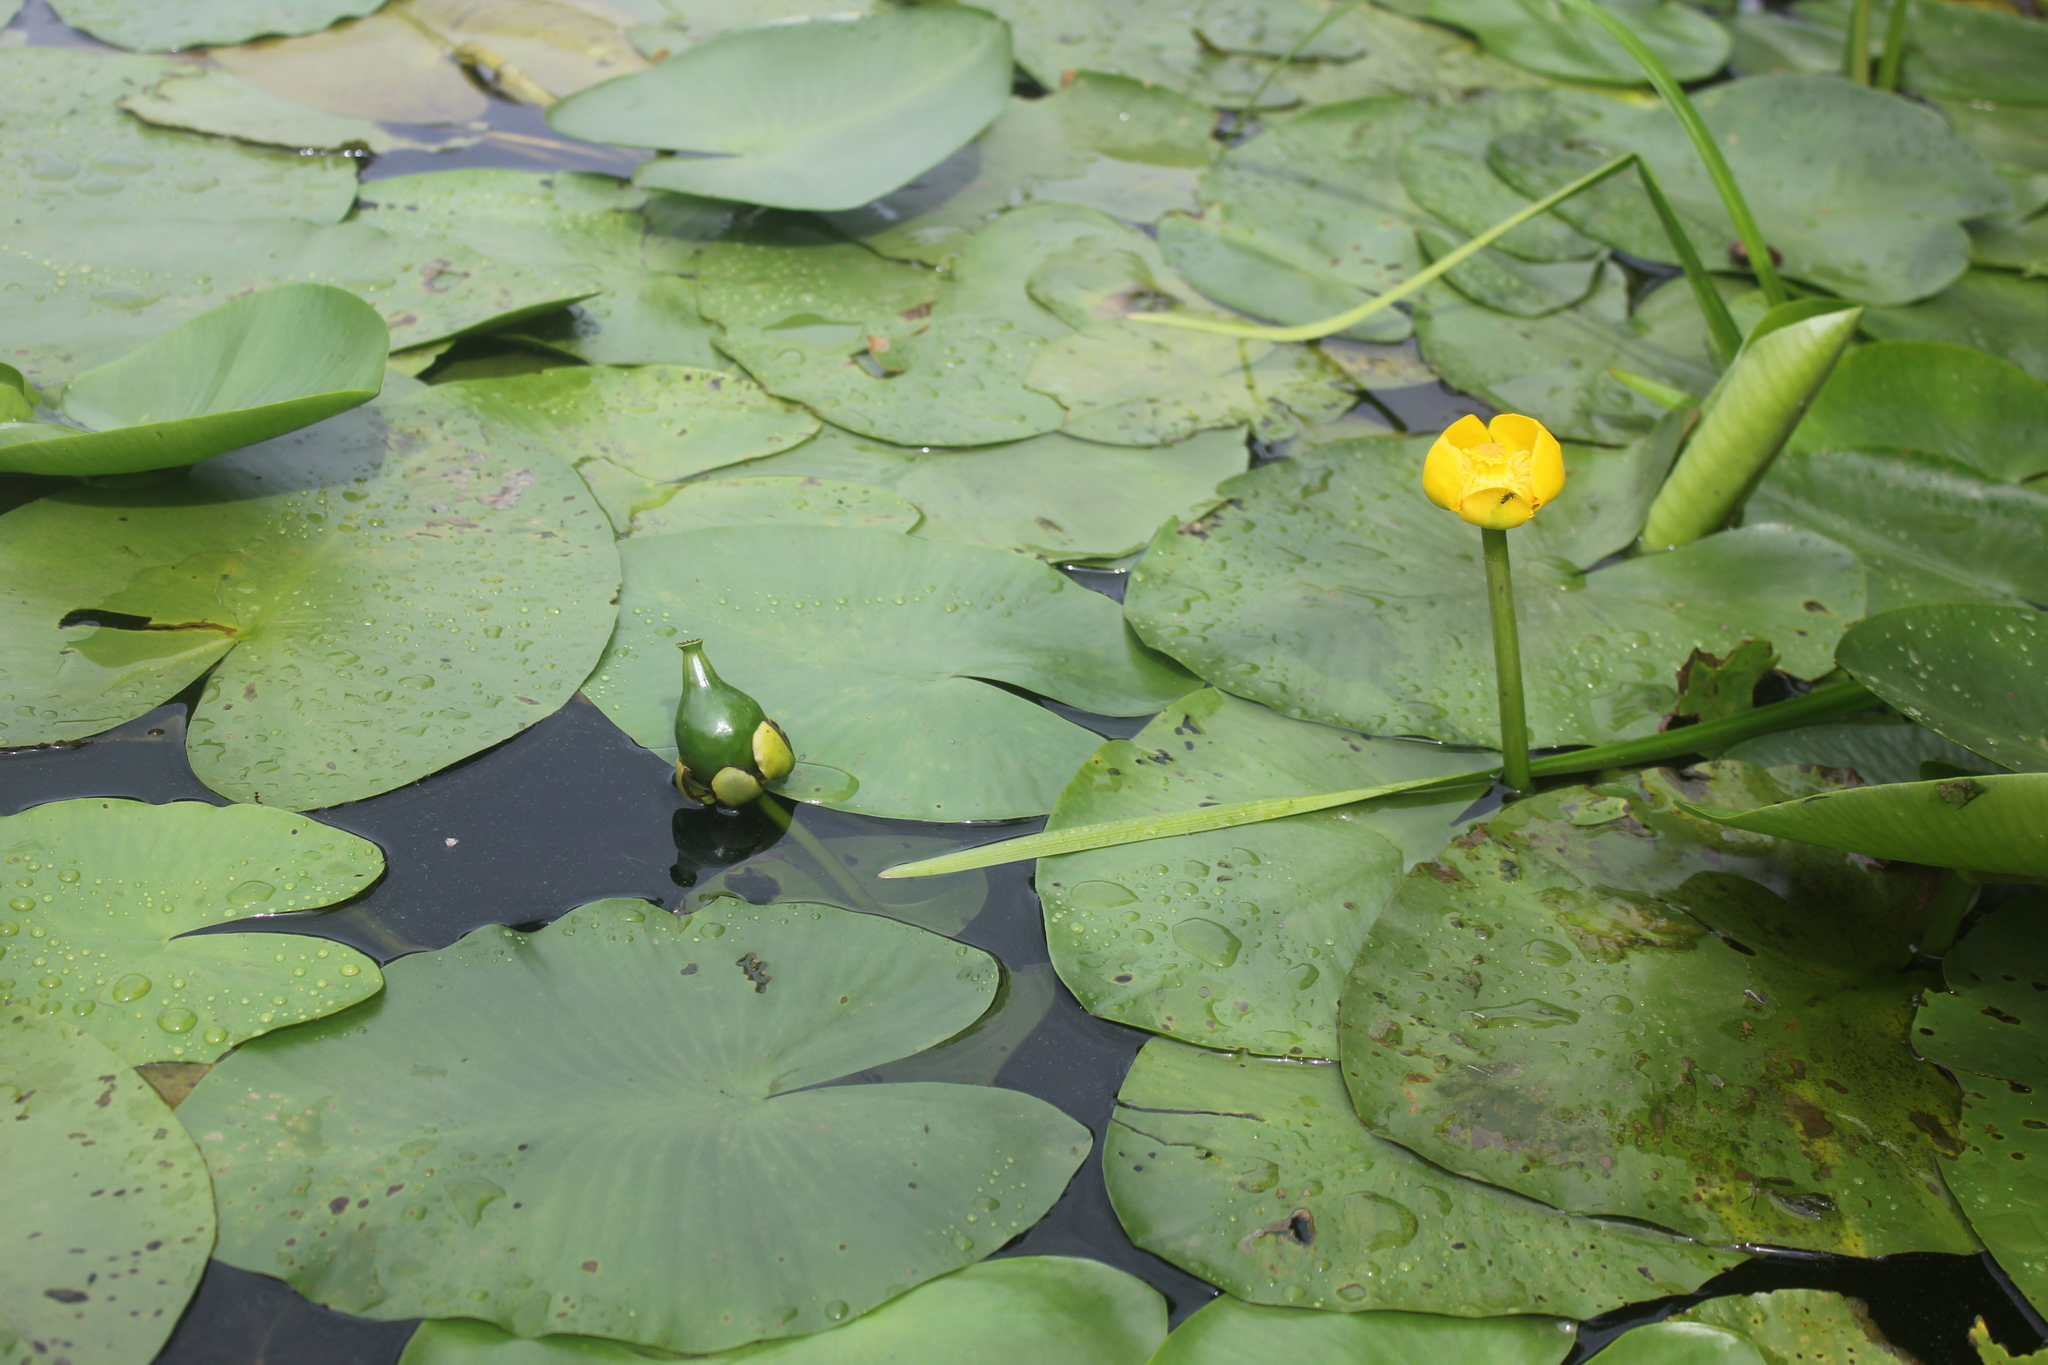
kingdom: Plantae
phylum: Tracheophyta
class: Magnoliopsida
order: Nymphaeales
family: Nymphaeaceae
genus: Nuphar
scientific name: Nuphar lutea
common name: Yellow water-lily
